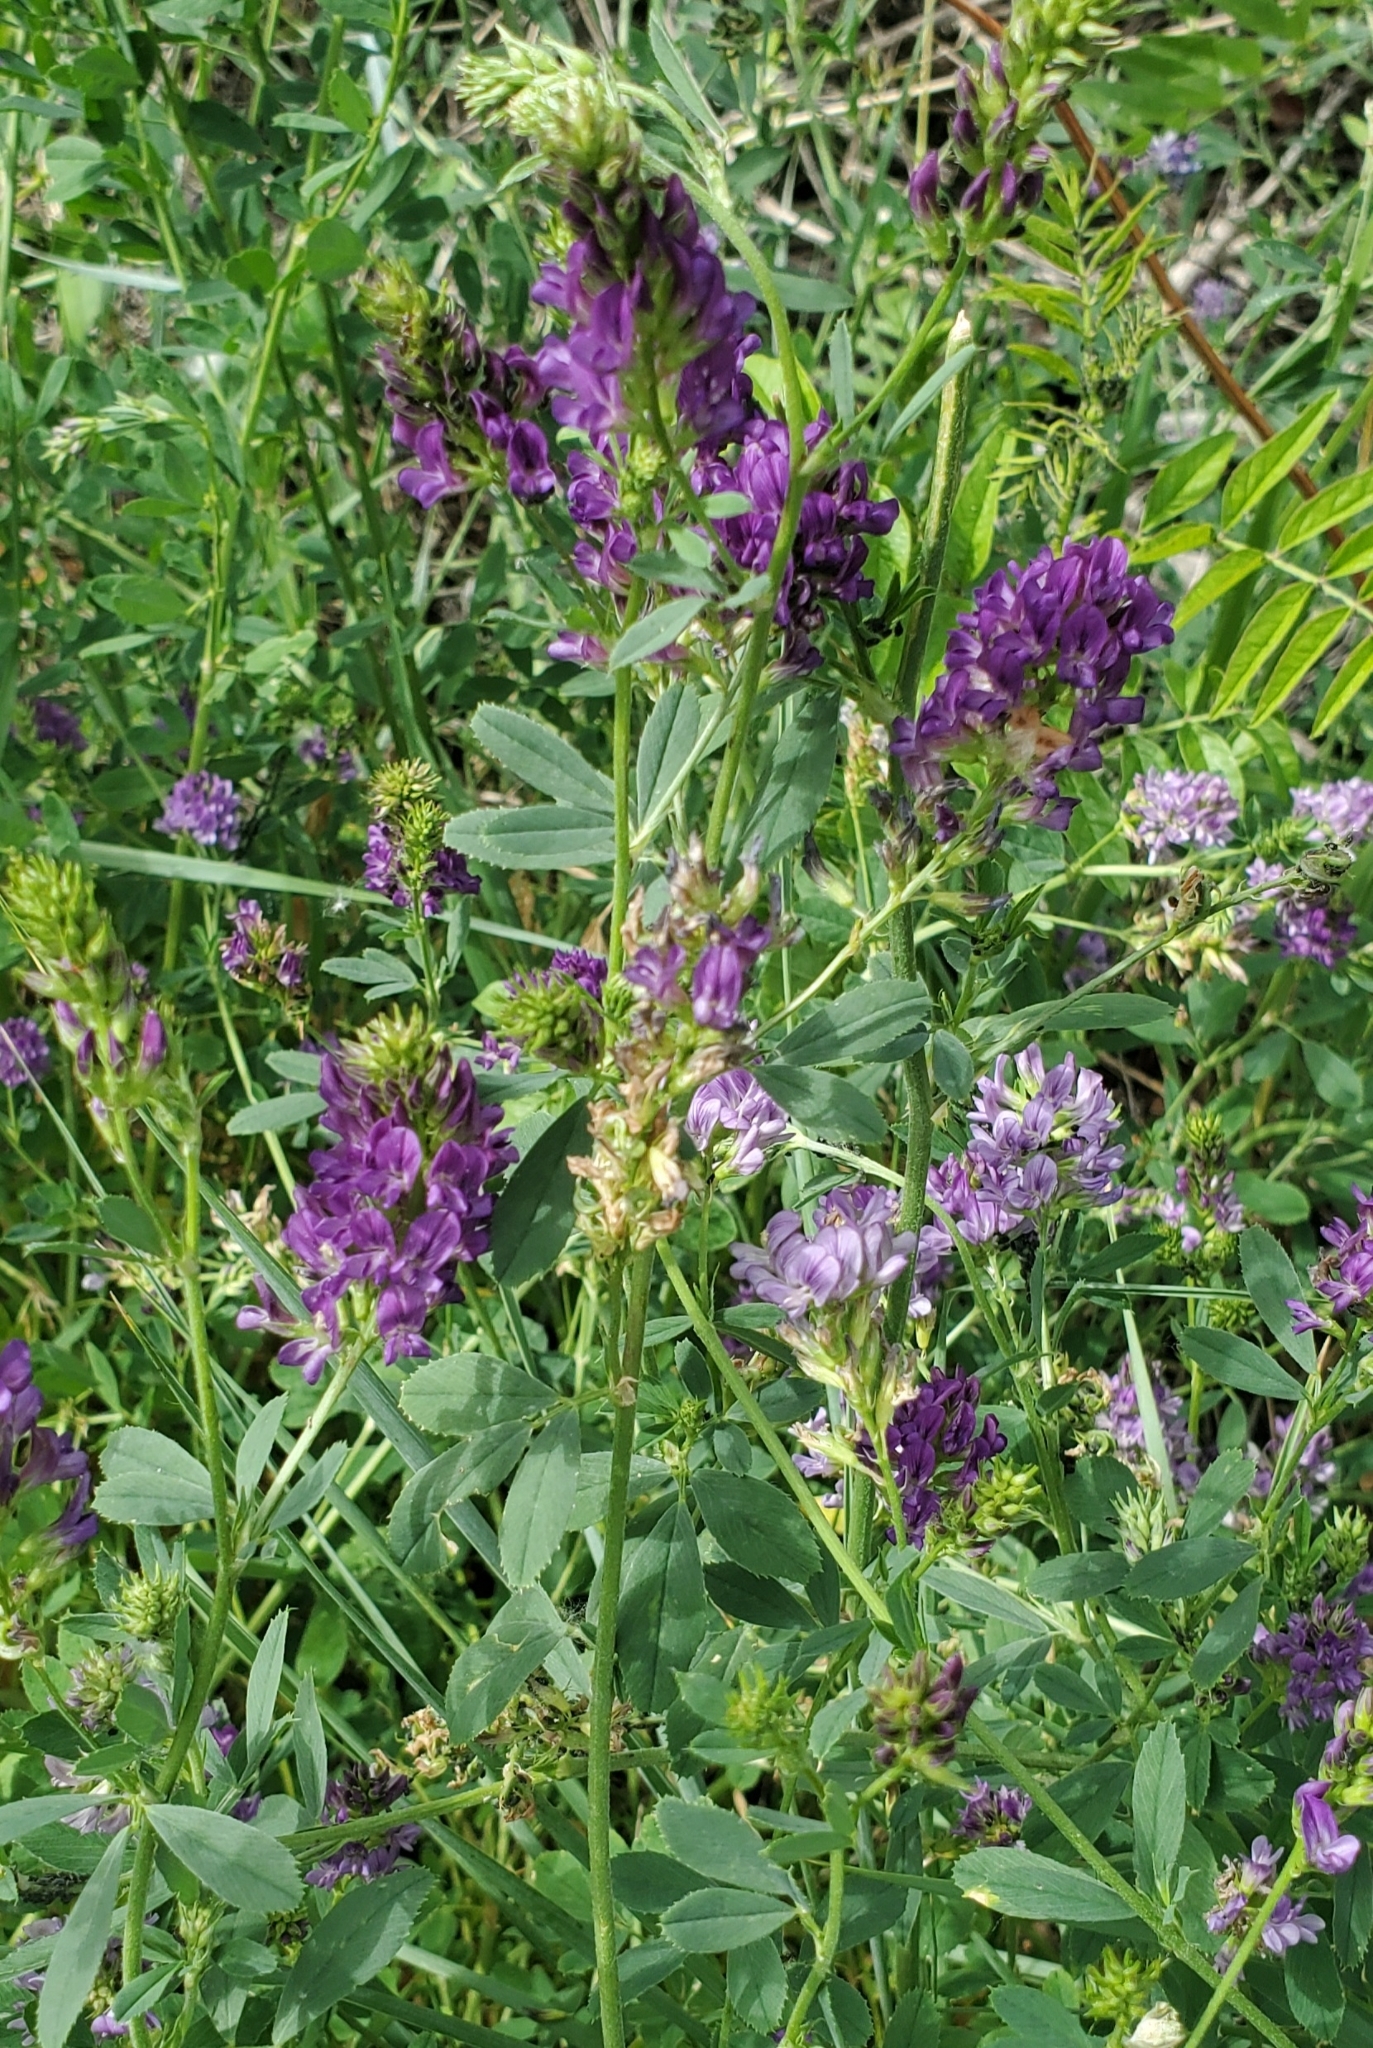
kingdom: Plantae
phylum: Tracheophyta
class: Magnoliopsida
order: Fabales
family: Fabaceae
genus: Medicago
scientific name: Medicago sativa
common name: Alfalfa
